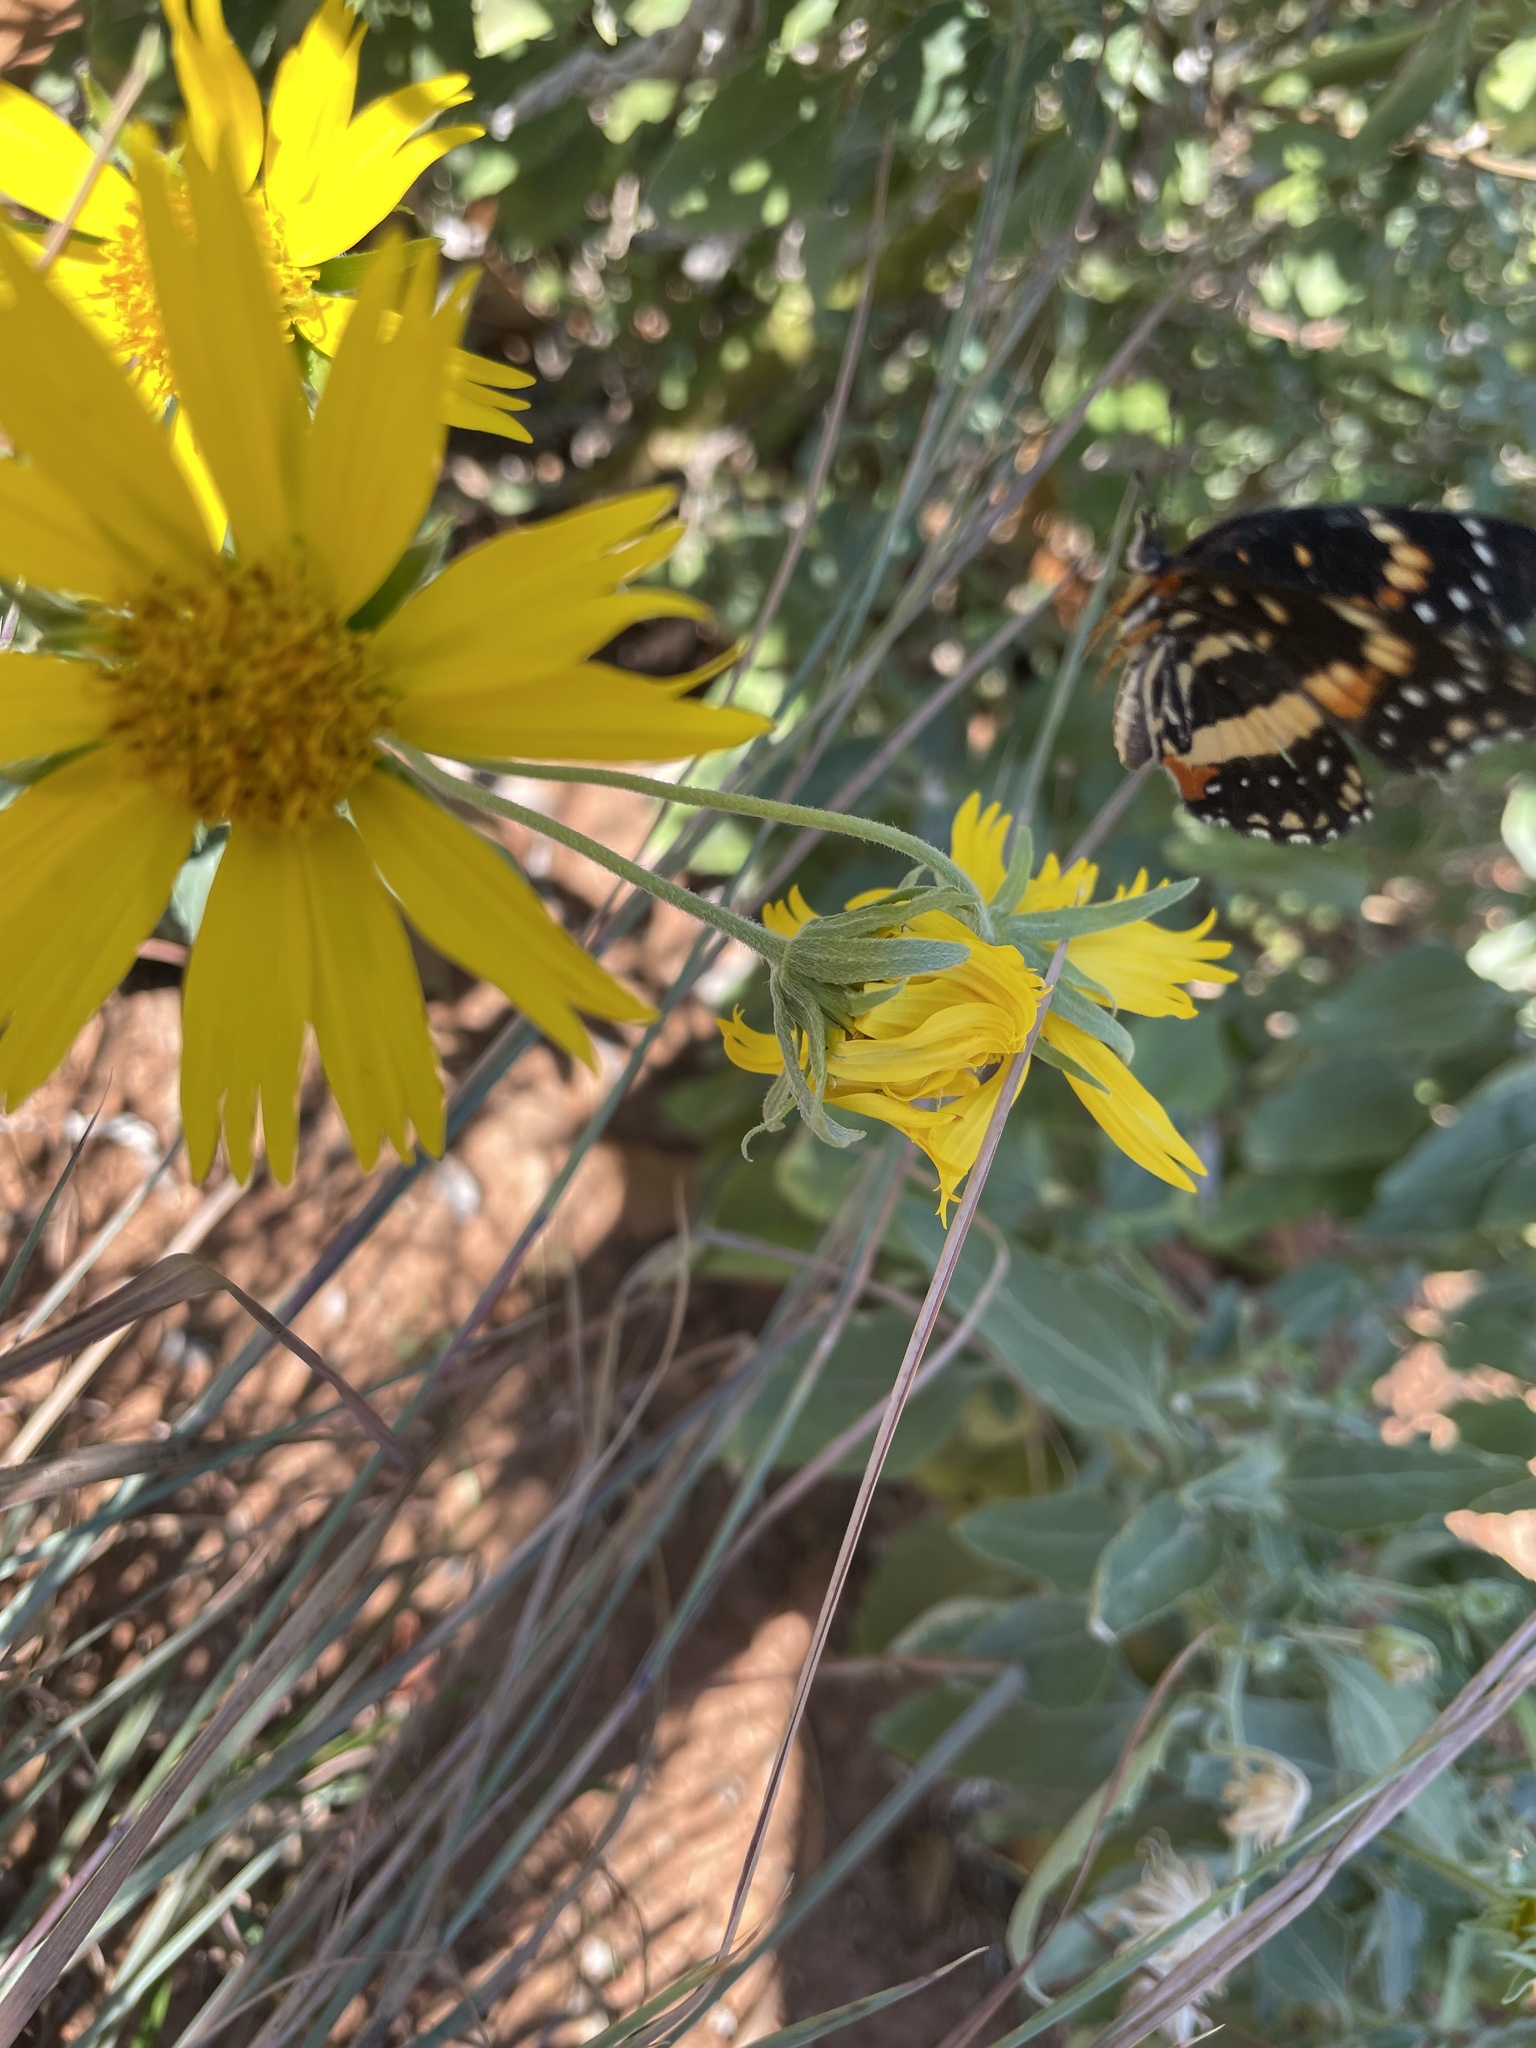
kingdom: Animalia
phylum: Arthropoda
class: Insecta
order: Lepidoptera
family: Nymphalidae
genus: Chlosyne
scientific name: Chlosyne lacinia
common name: Bordered patch
